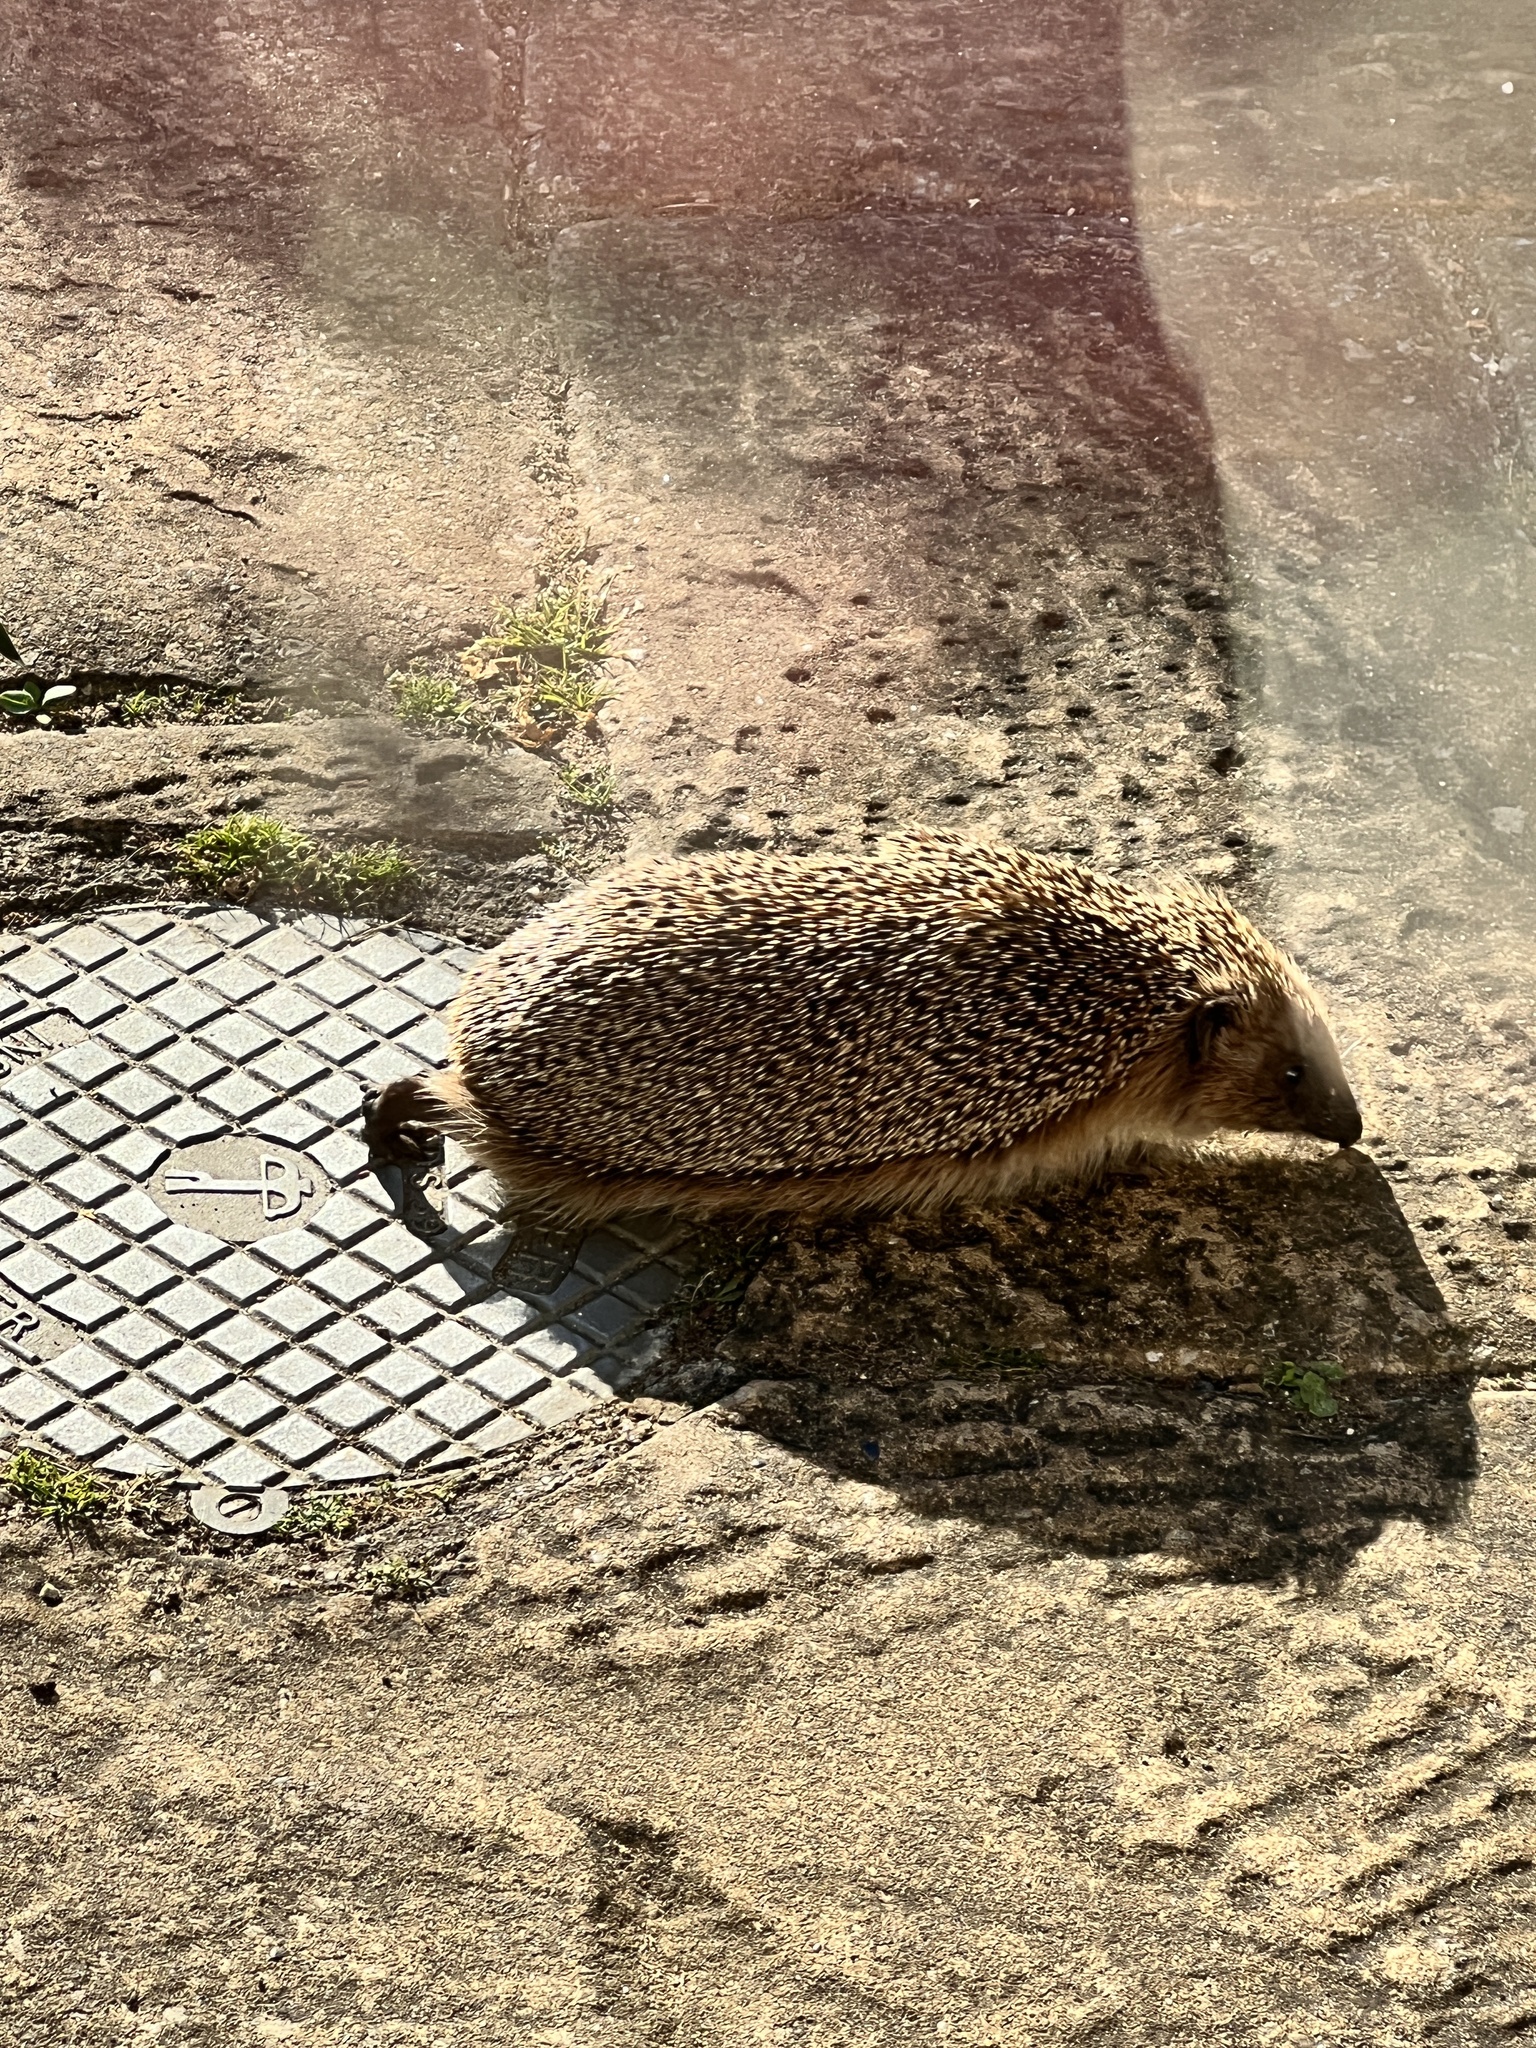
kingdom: Animalia
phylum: Chordata
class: Mammalia
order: Erinaceomorpha
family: Erinaceidae
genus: Erinaceus
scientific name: Erinaceus europaeus
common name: West european hedgehog
